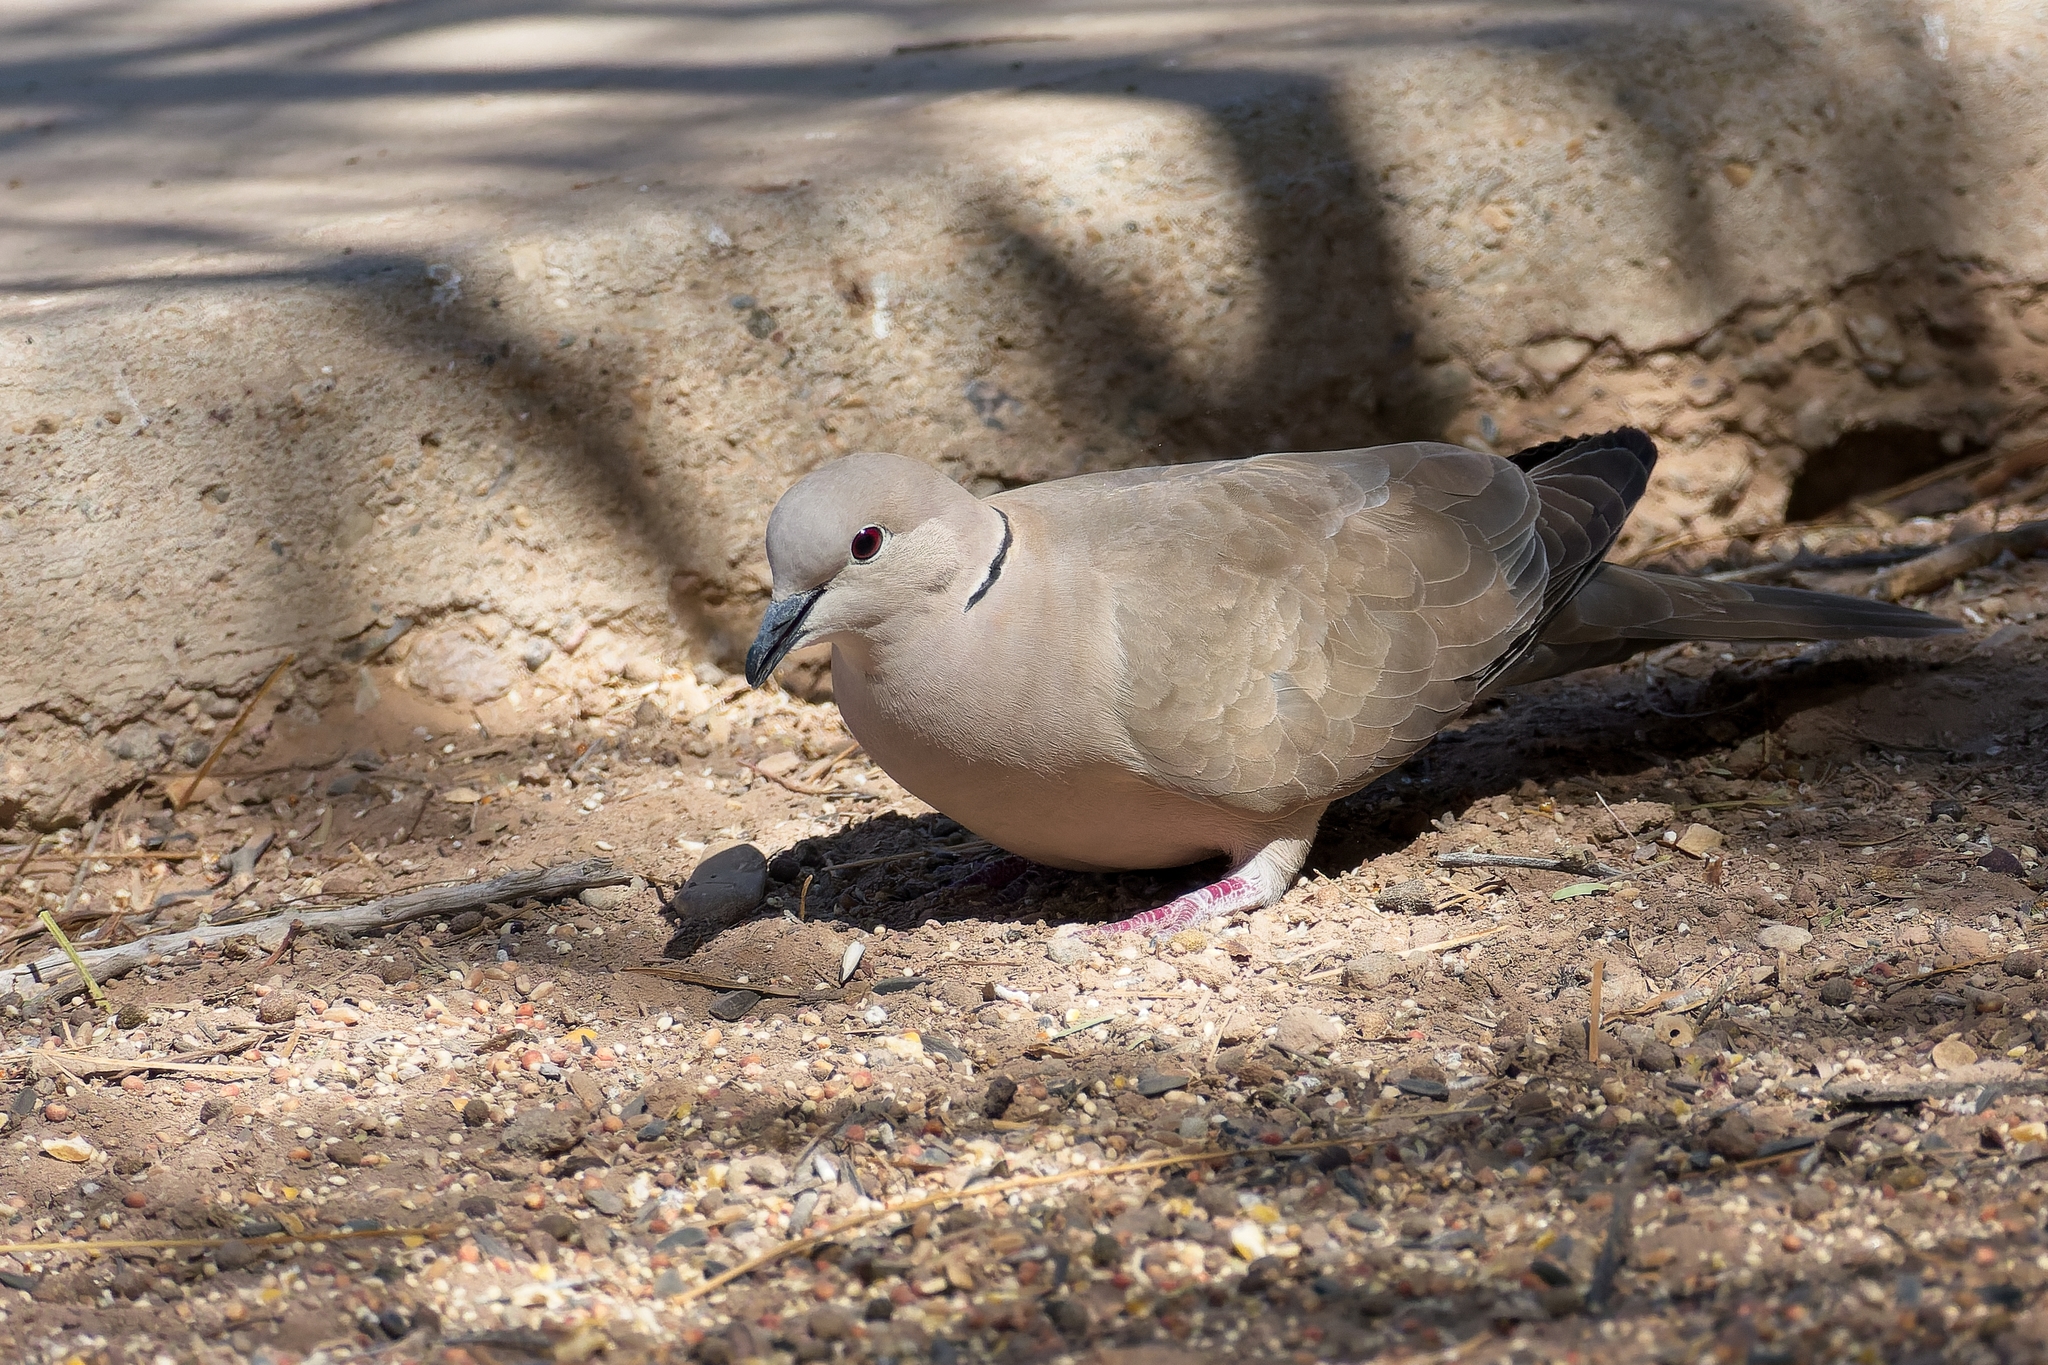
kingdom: Animalia
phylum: Chordata
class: Aves
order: Columbiformes
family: Columbidae
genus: Streptopelia
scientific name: Streptopelia decaocto
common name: Eurasian collared dove
